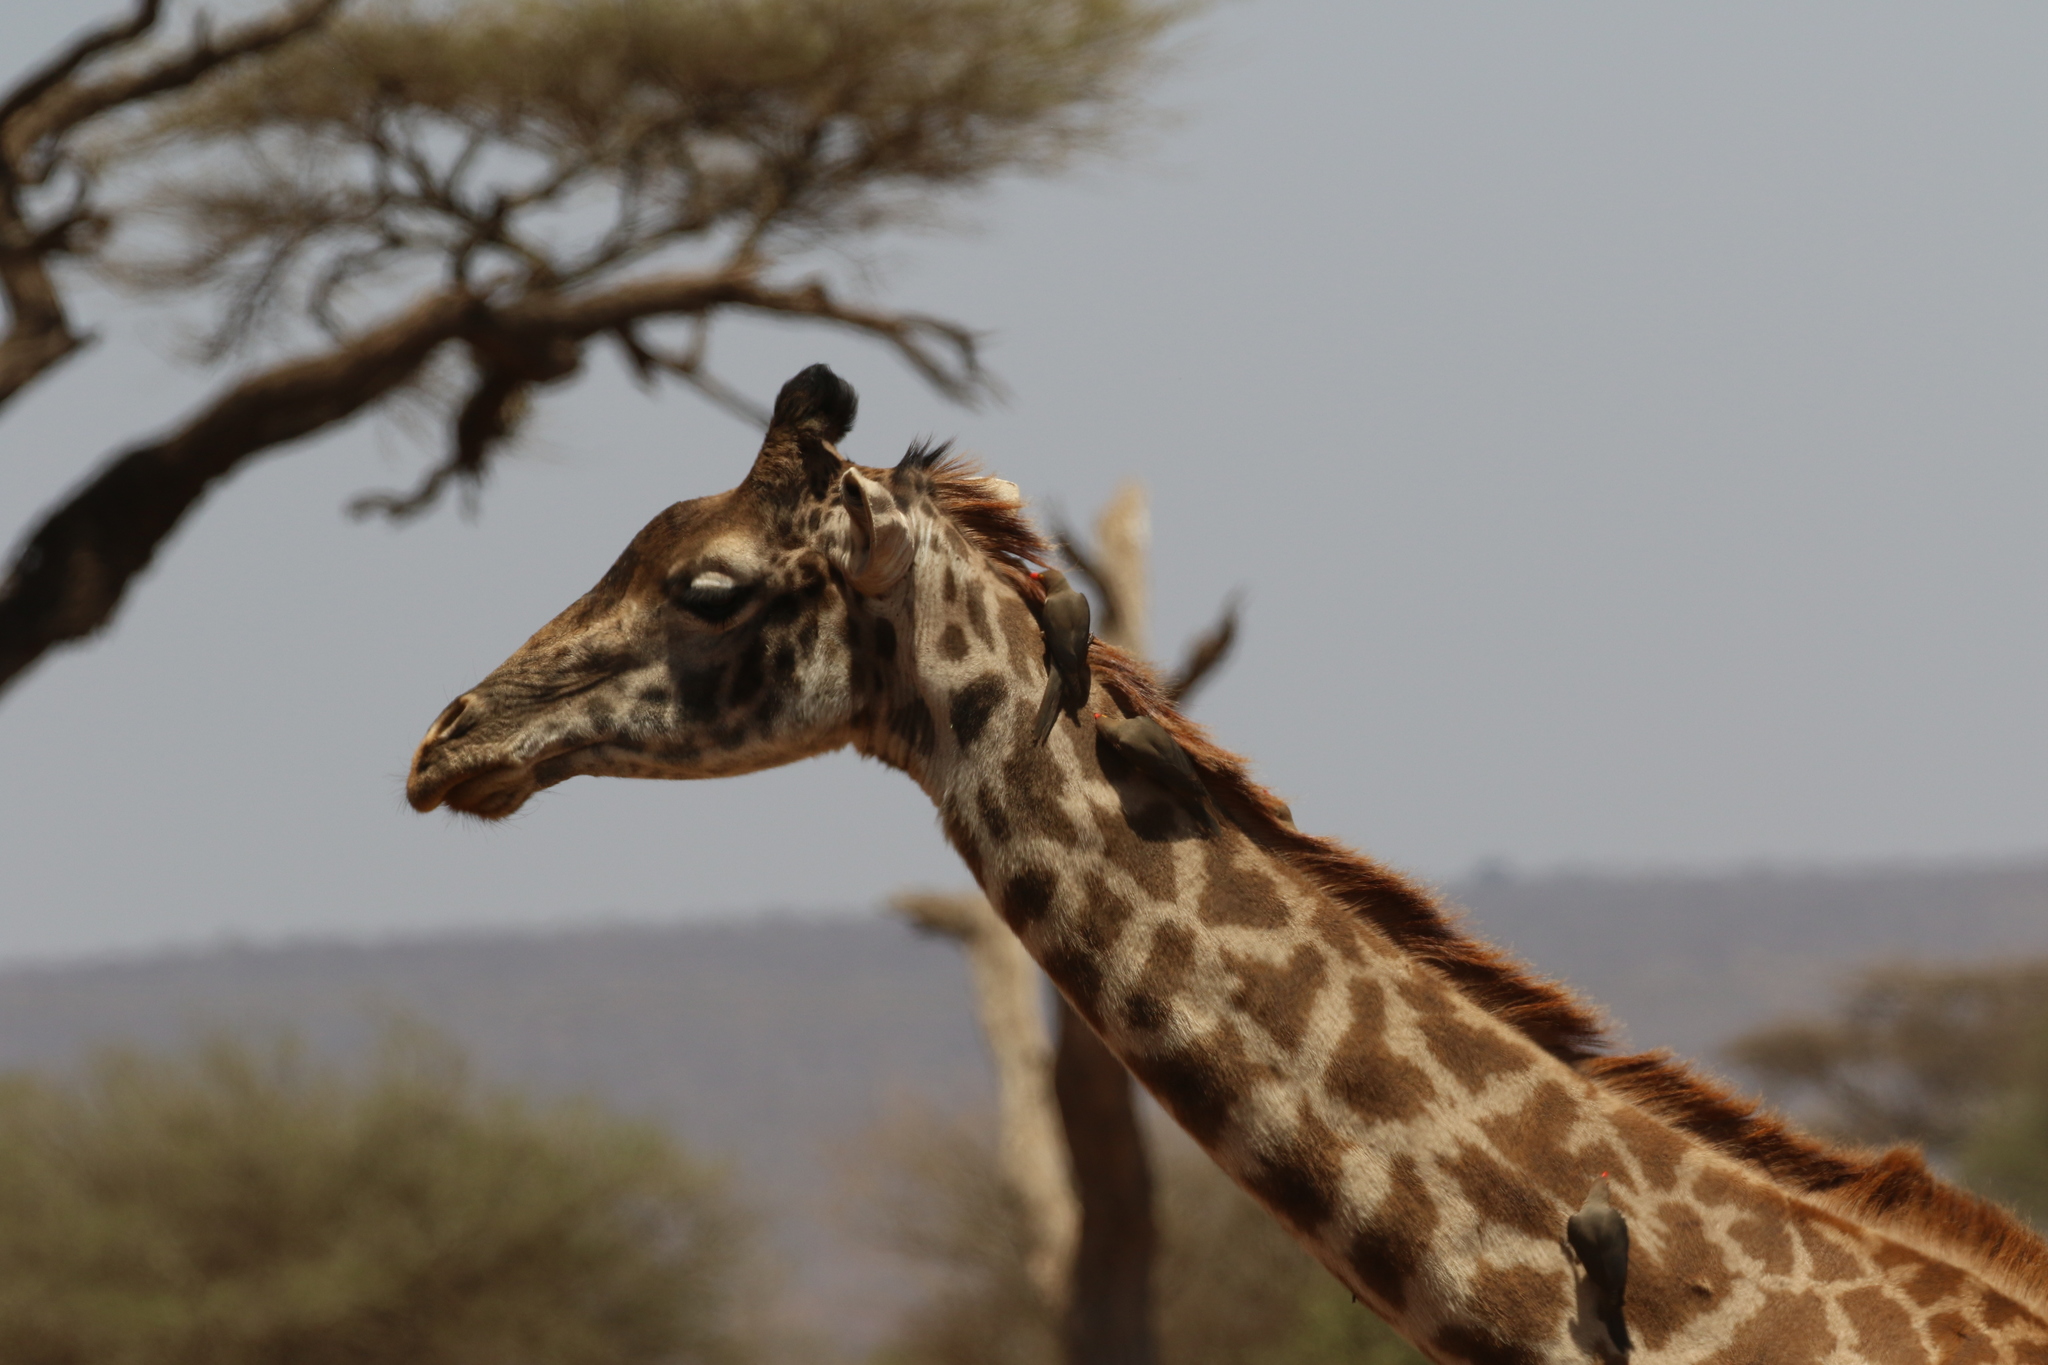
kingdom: Animalia
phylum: Chordata
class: Aves
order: Passeriformes
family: Buphagidae
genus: Buphagus
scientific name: Buphagus erythrorhynchus
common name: Red-billed oxpecker
